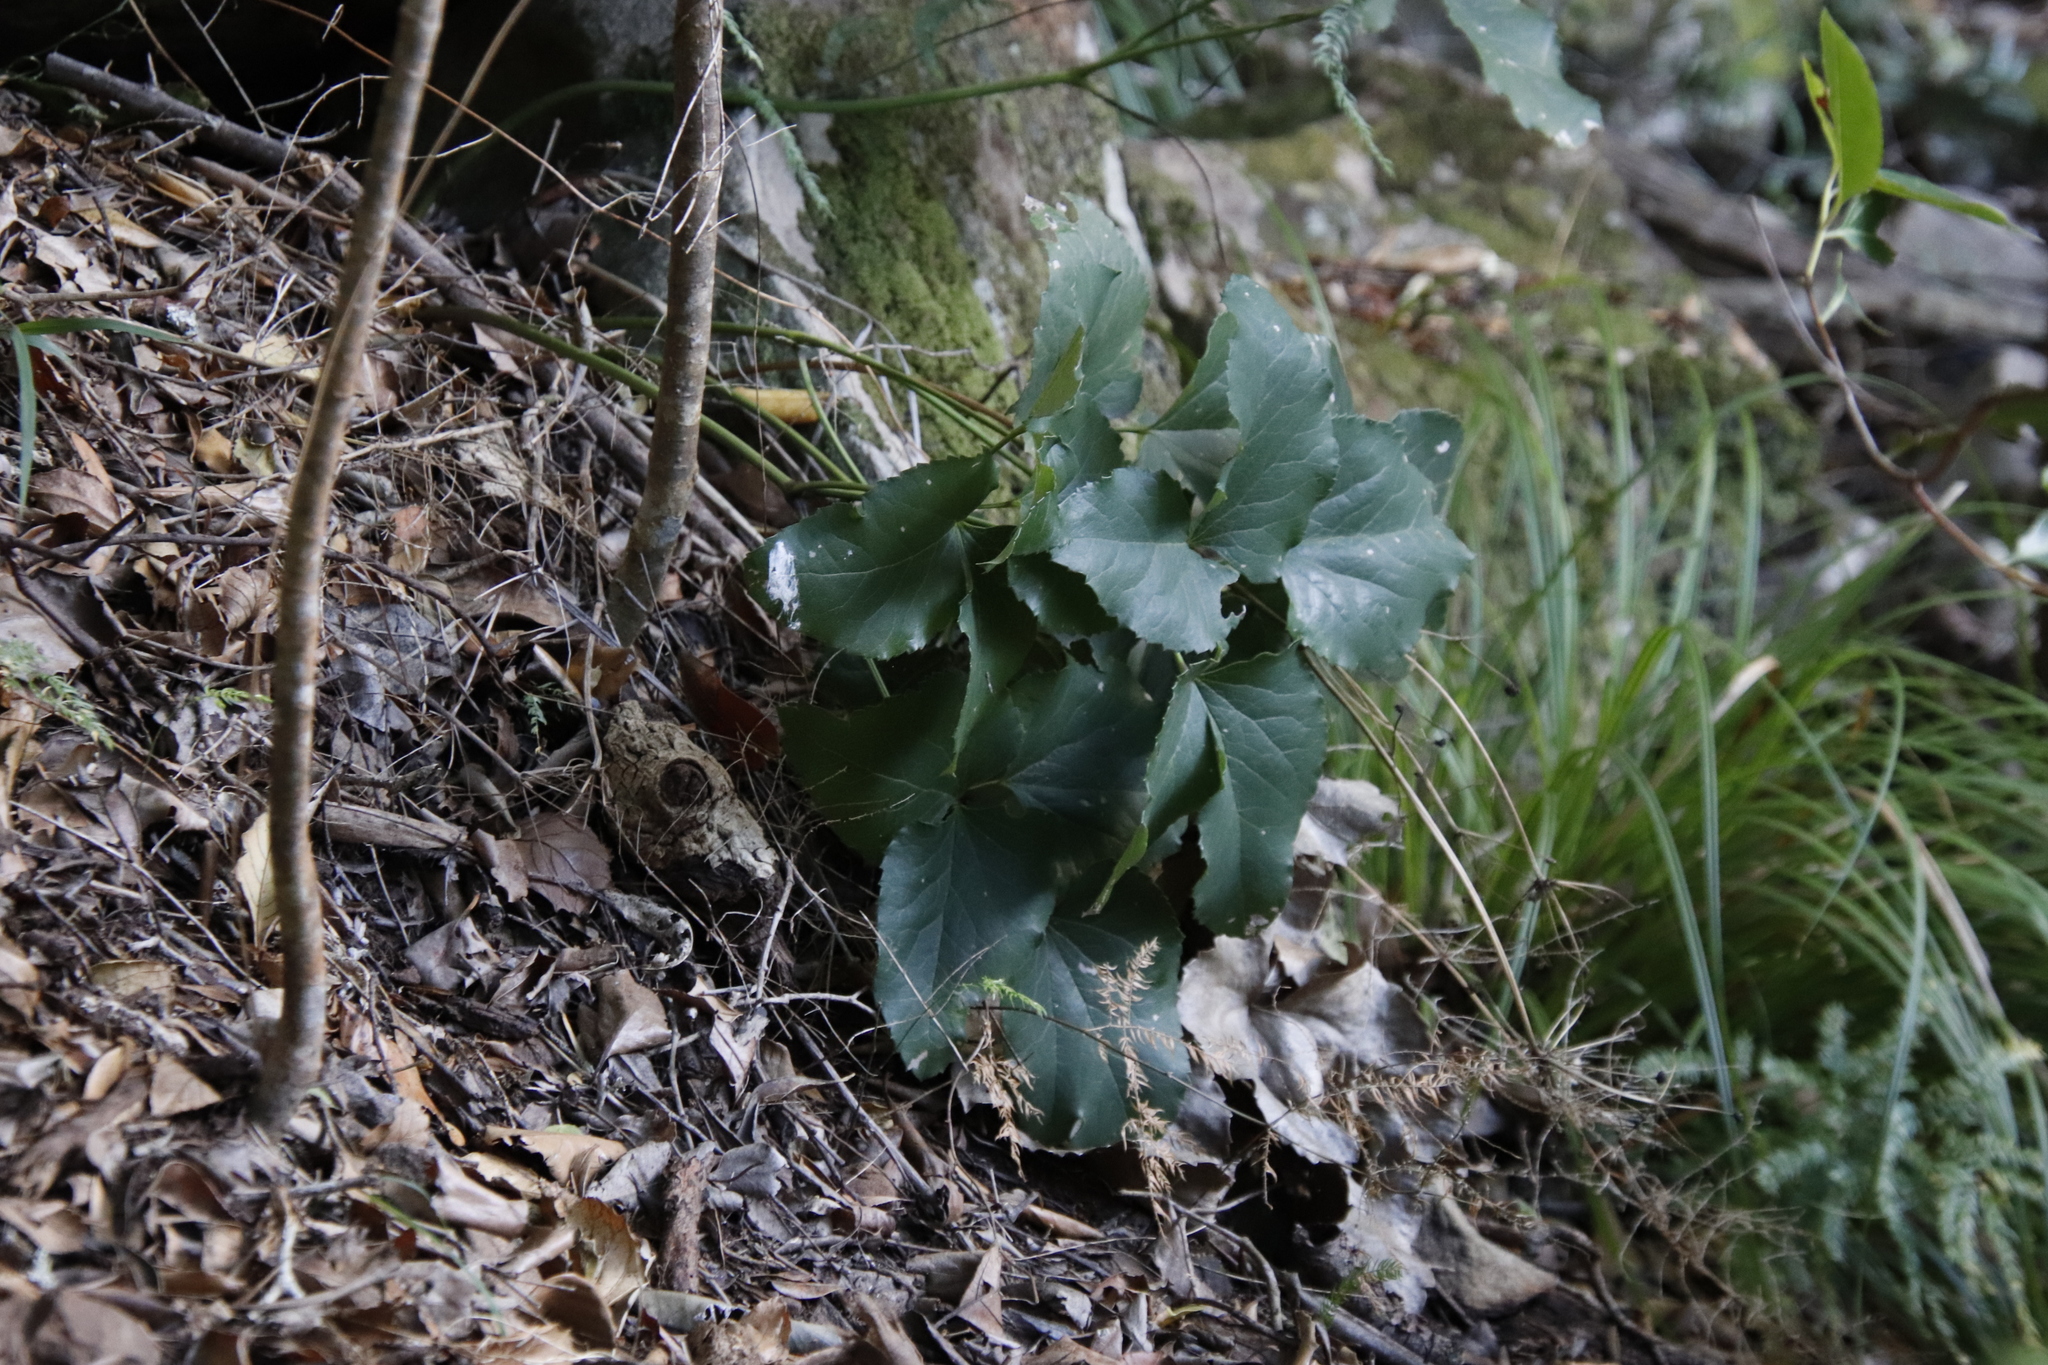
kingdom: Plantae
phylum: Tracheophyta
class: Magnoliopsida
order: Ranunculales
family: Ranunculaceae
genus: Knowltonia
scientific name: Knowltonia vesicatoria
